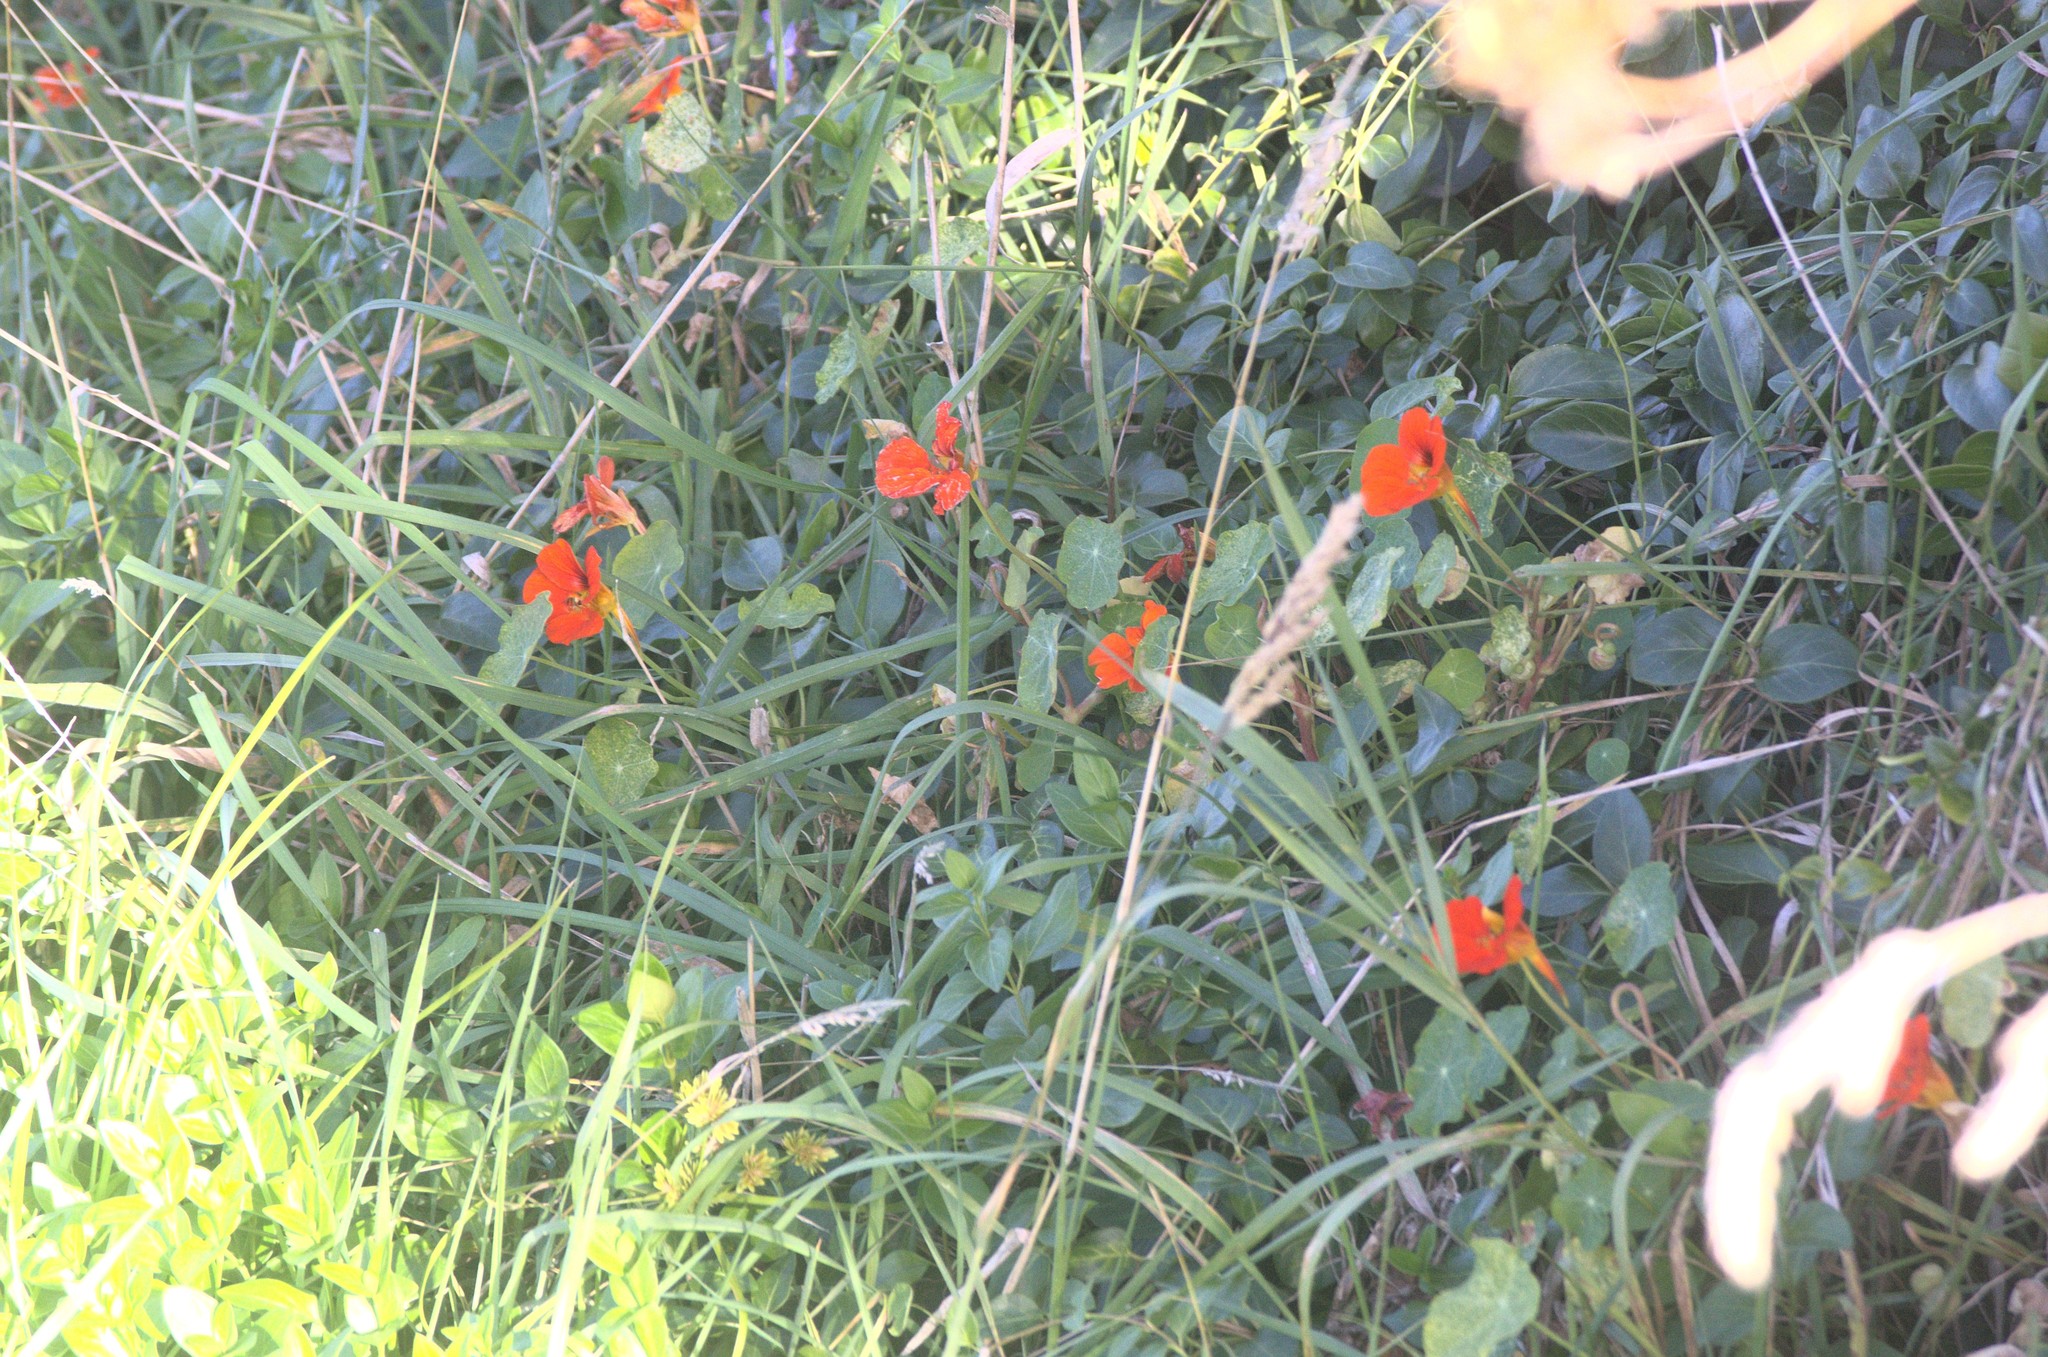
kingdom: Plantae
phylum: Tracheophyta
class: Magnoliopsida
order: Brassicales
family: Tropaeolaceae
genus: Tropaeolum
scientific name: Tropaeolum majus
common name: Nasturtium
